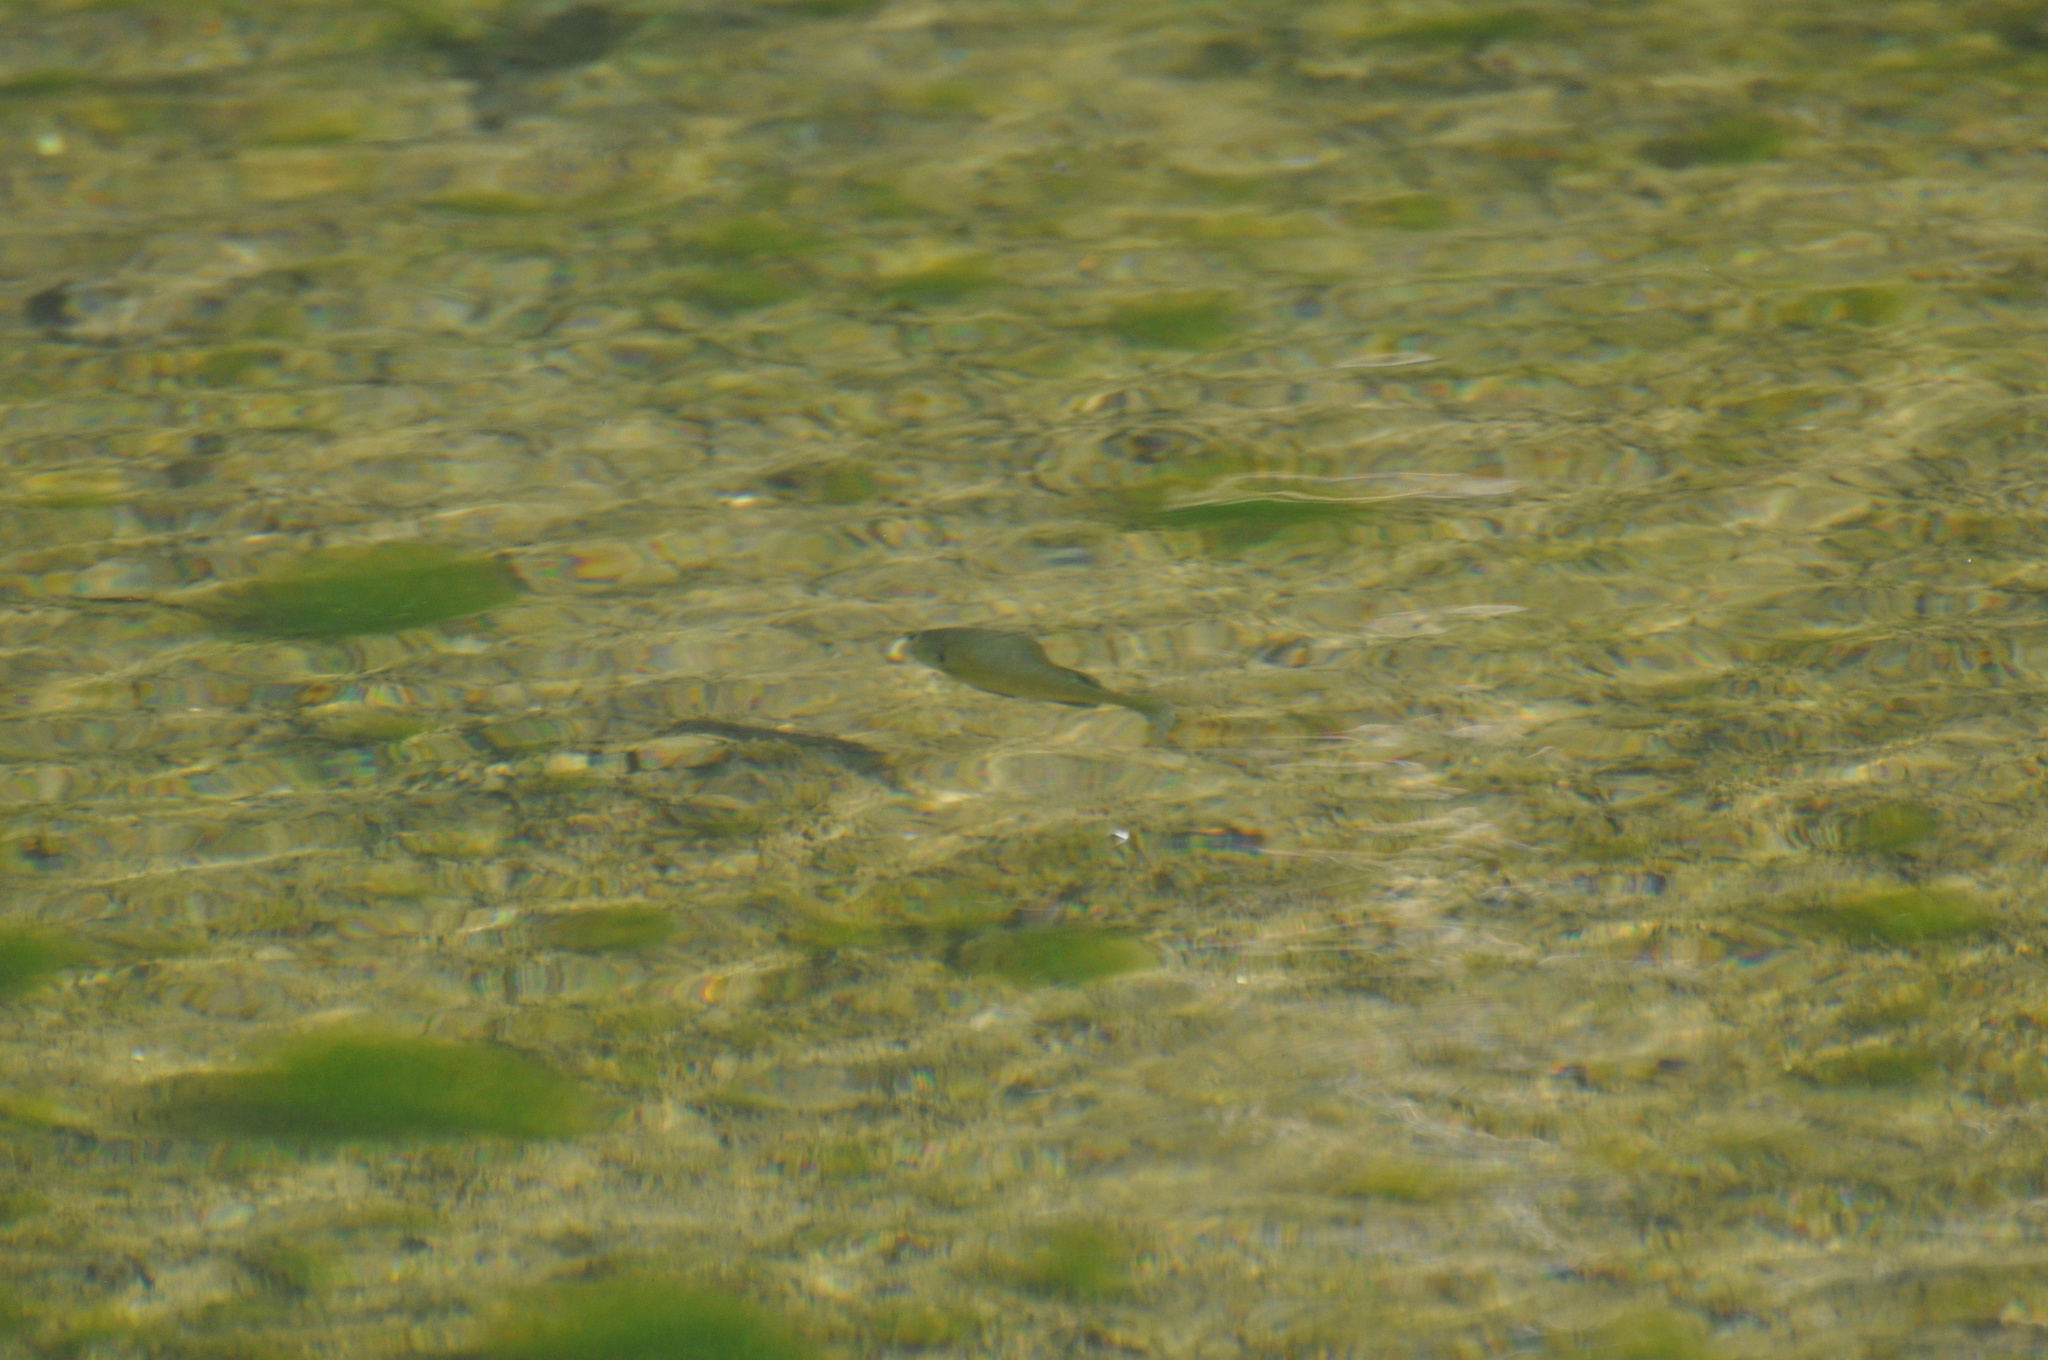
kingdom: Animalia
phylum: Chordata
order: Perciformes
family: Centrarchidae
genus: Lepomis
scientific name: Lepomis macrochirus
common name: Bluegill
